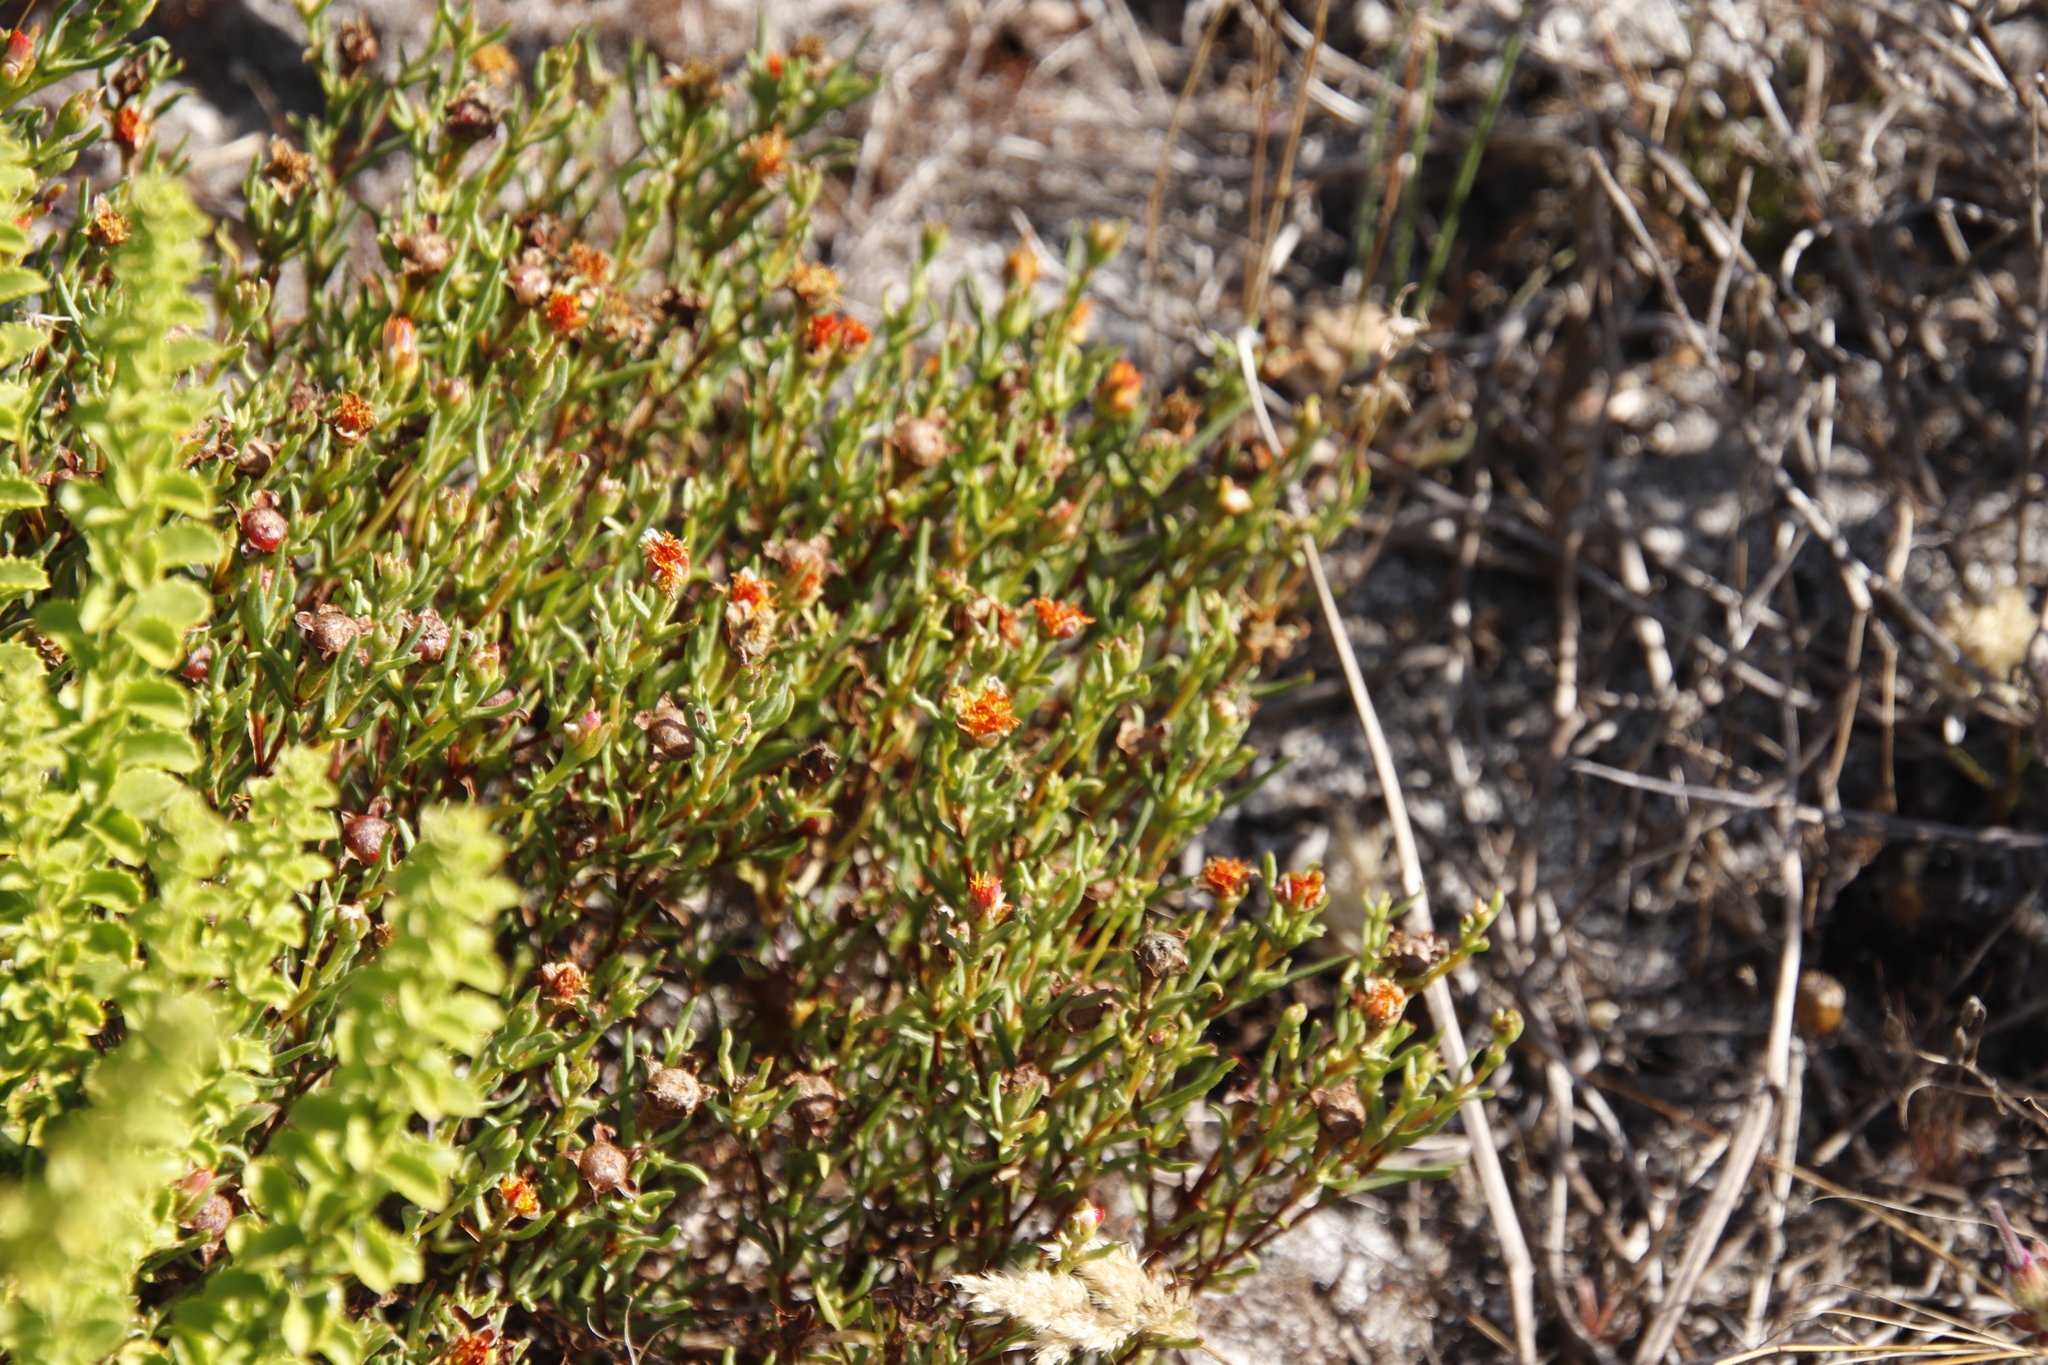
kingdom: Plantae
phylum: Tracheophyta
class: Magnoliopsida
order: Caryophyllales
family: Aizoaceae
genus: Lampranthus
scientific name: Lampranthus bicolor
